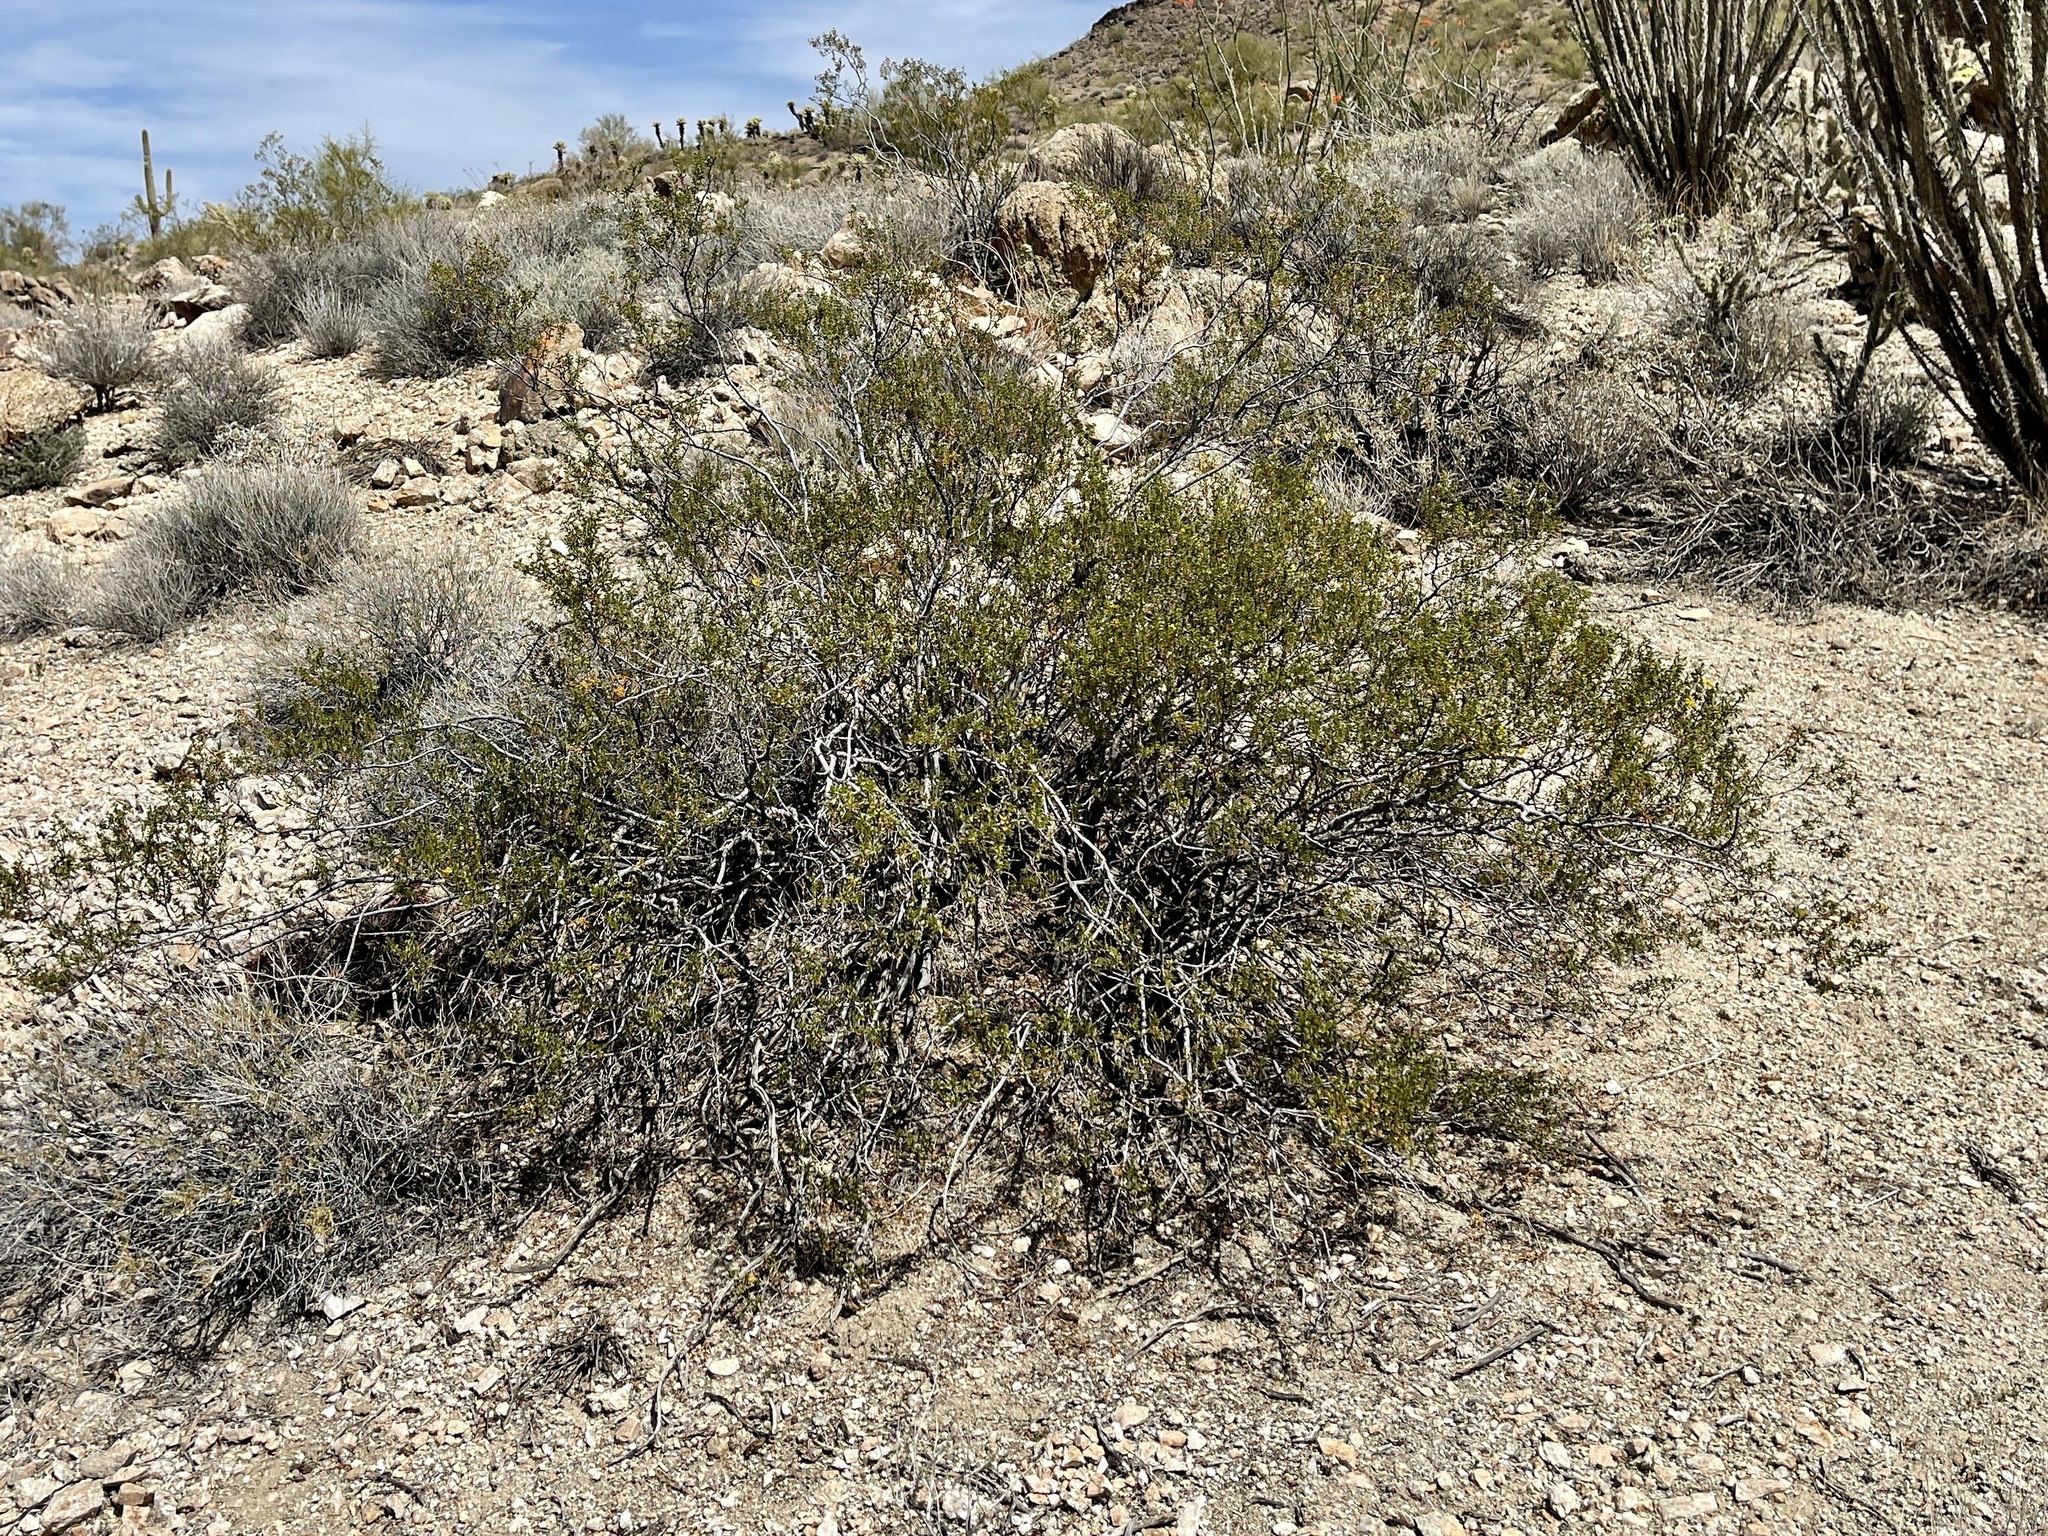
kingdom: Plantae
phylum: Tracheophyta
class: Magnoliopsida
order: Zygophyllales
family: Zygophyllaceae
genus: Larrea
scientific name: Larrea tridentata
